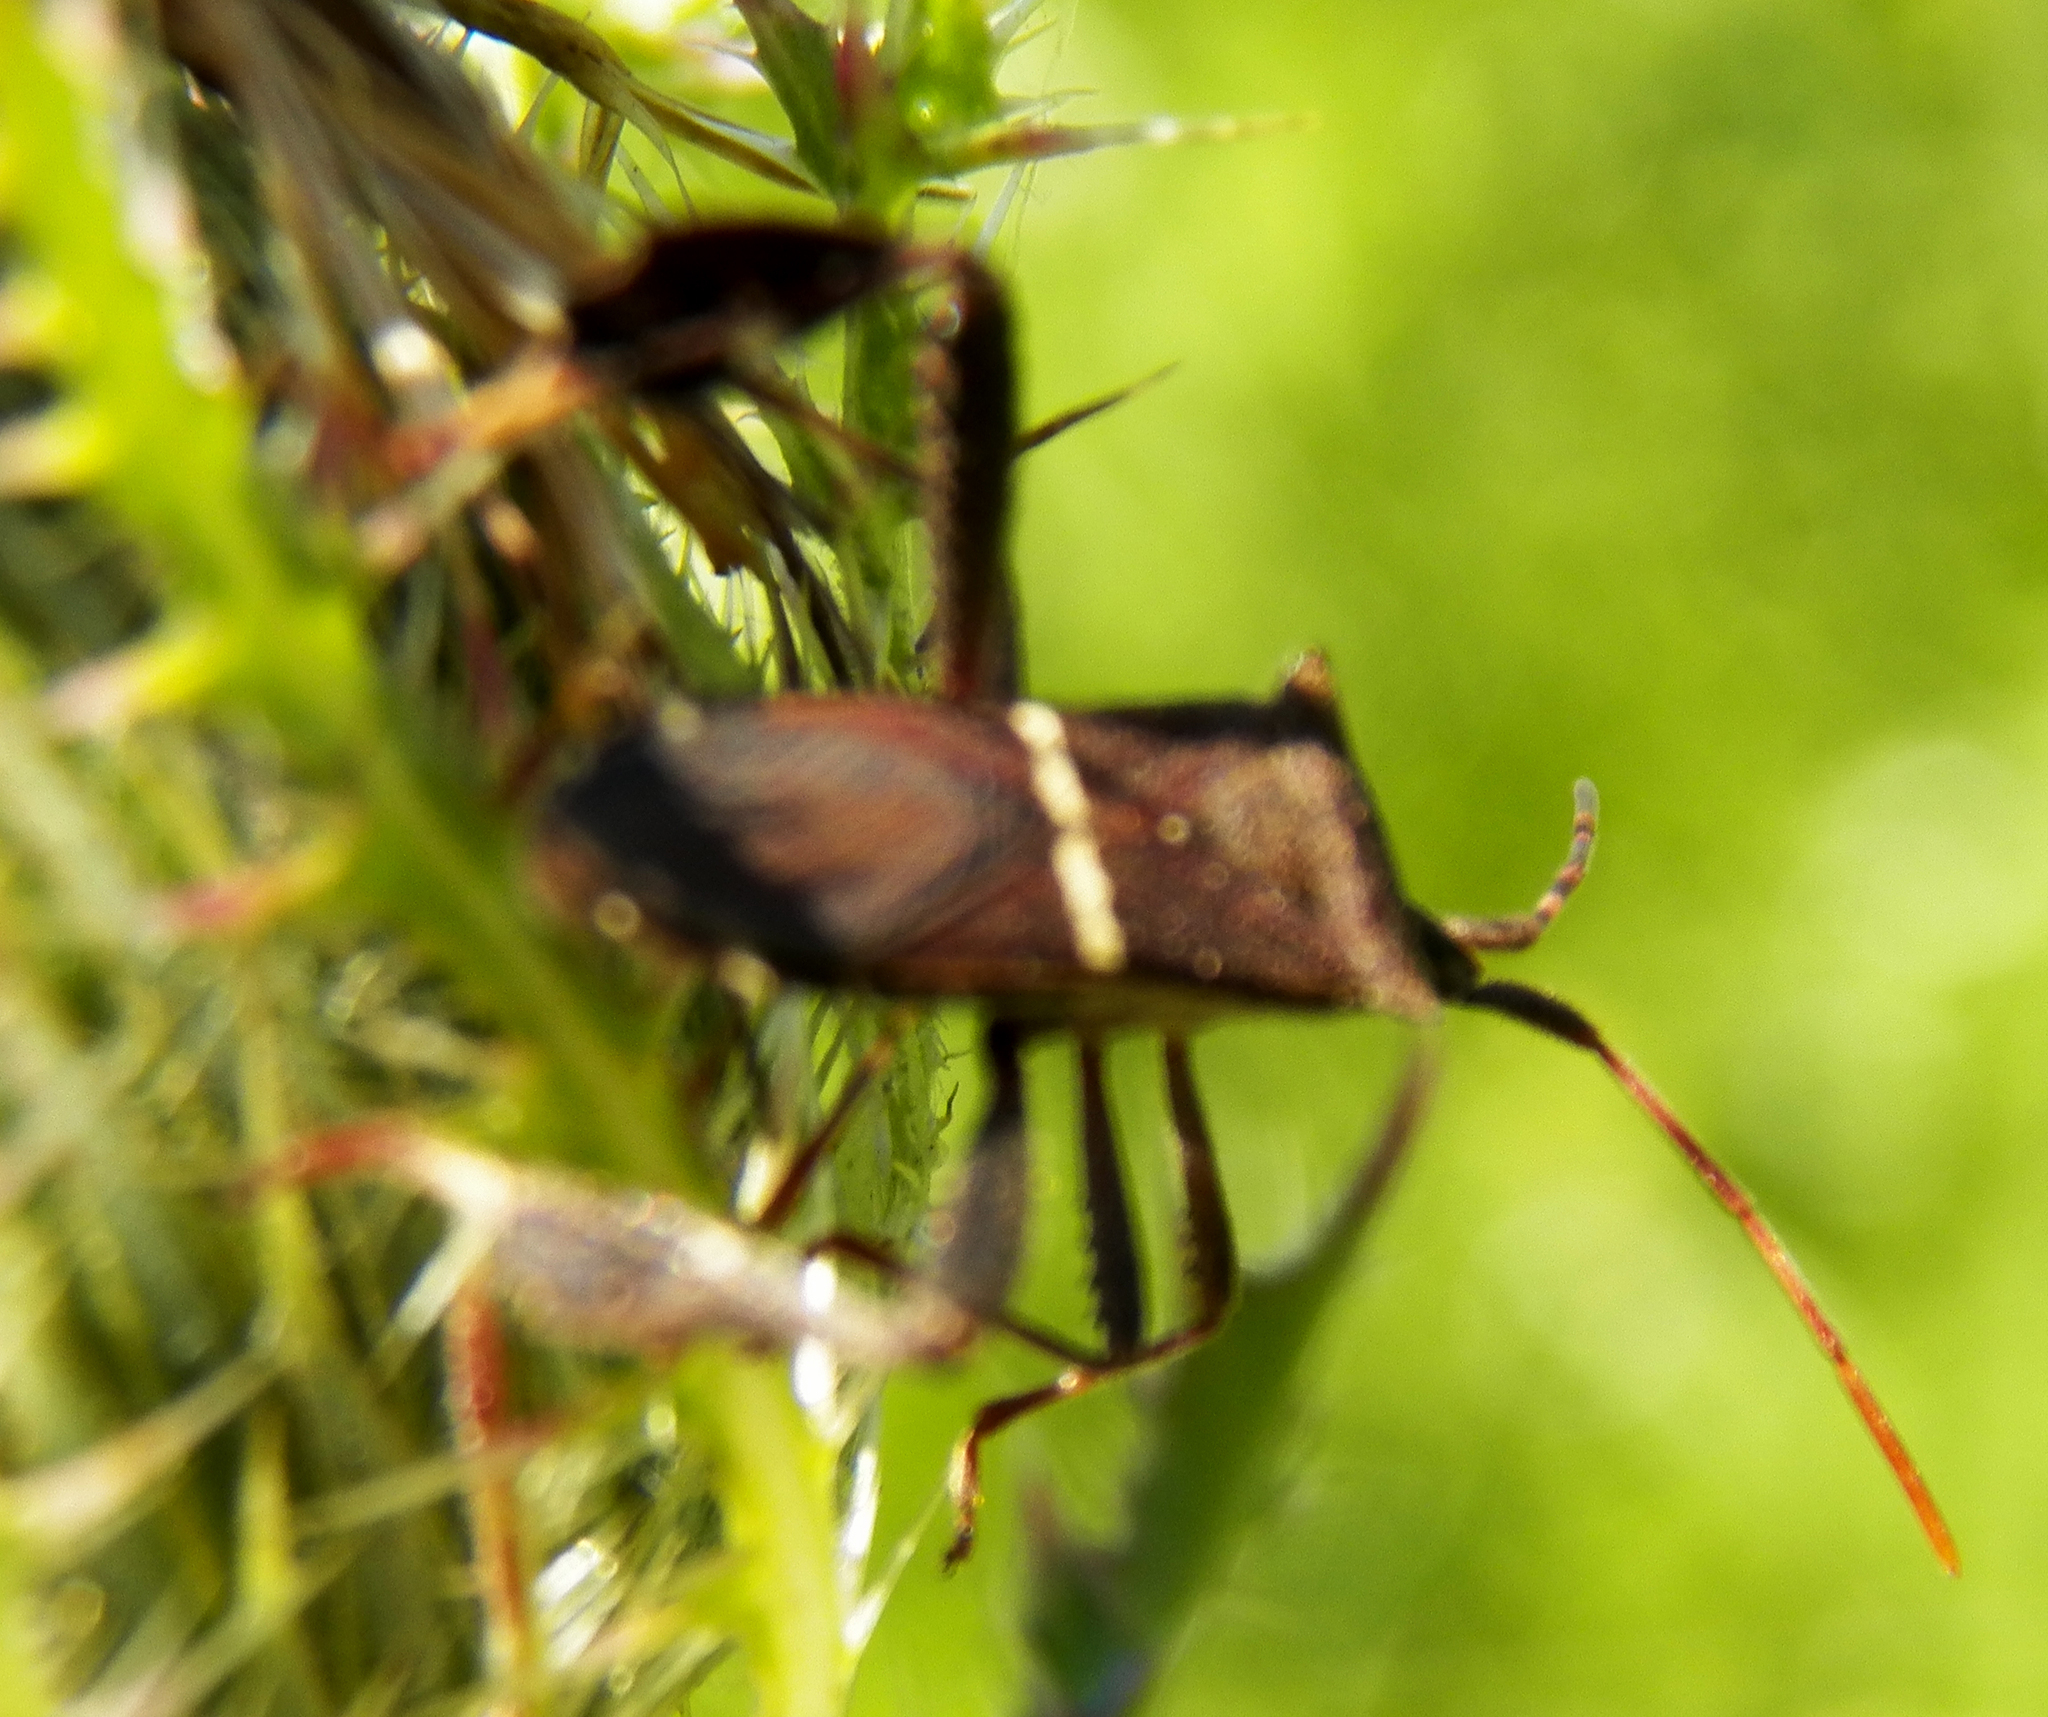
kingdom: Animalia
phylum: Arthropoda
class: Insecta
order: Hemiptera
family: Coreidae
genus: Leptoglossus
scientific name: Leptoglossus phyllopus
